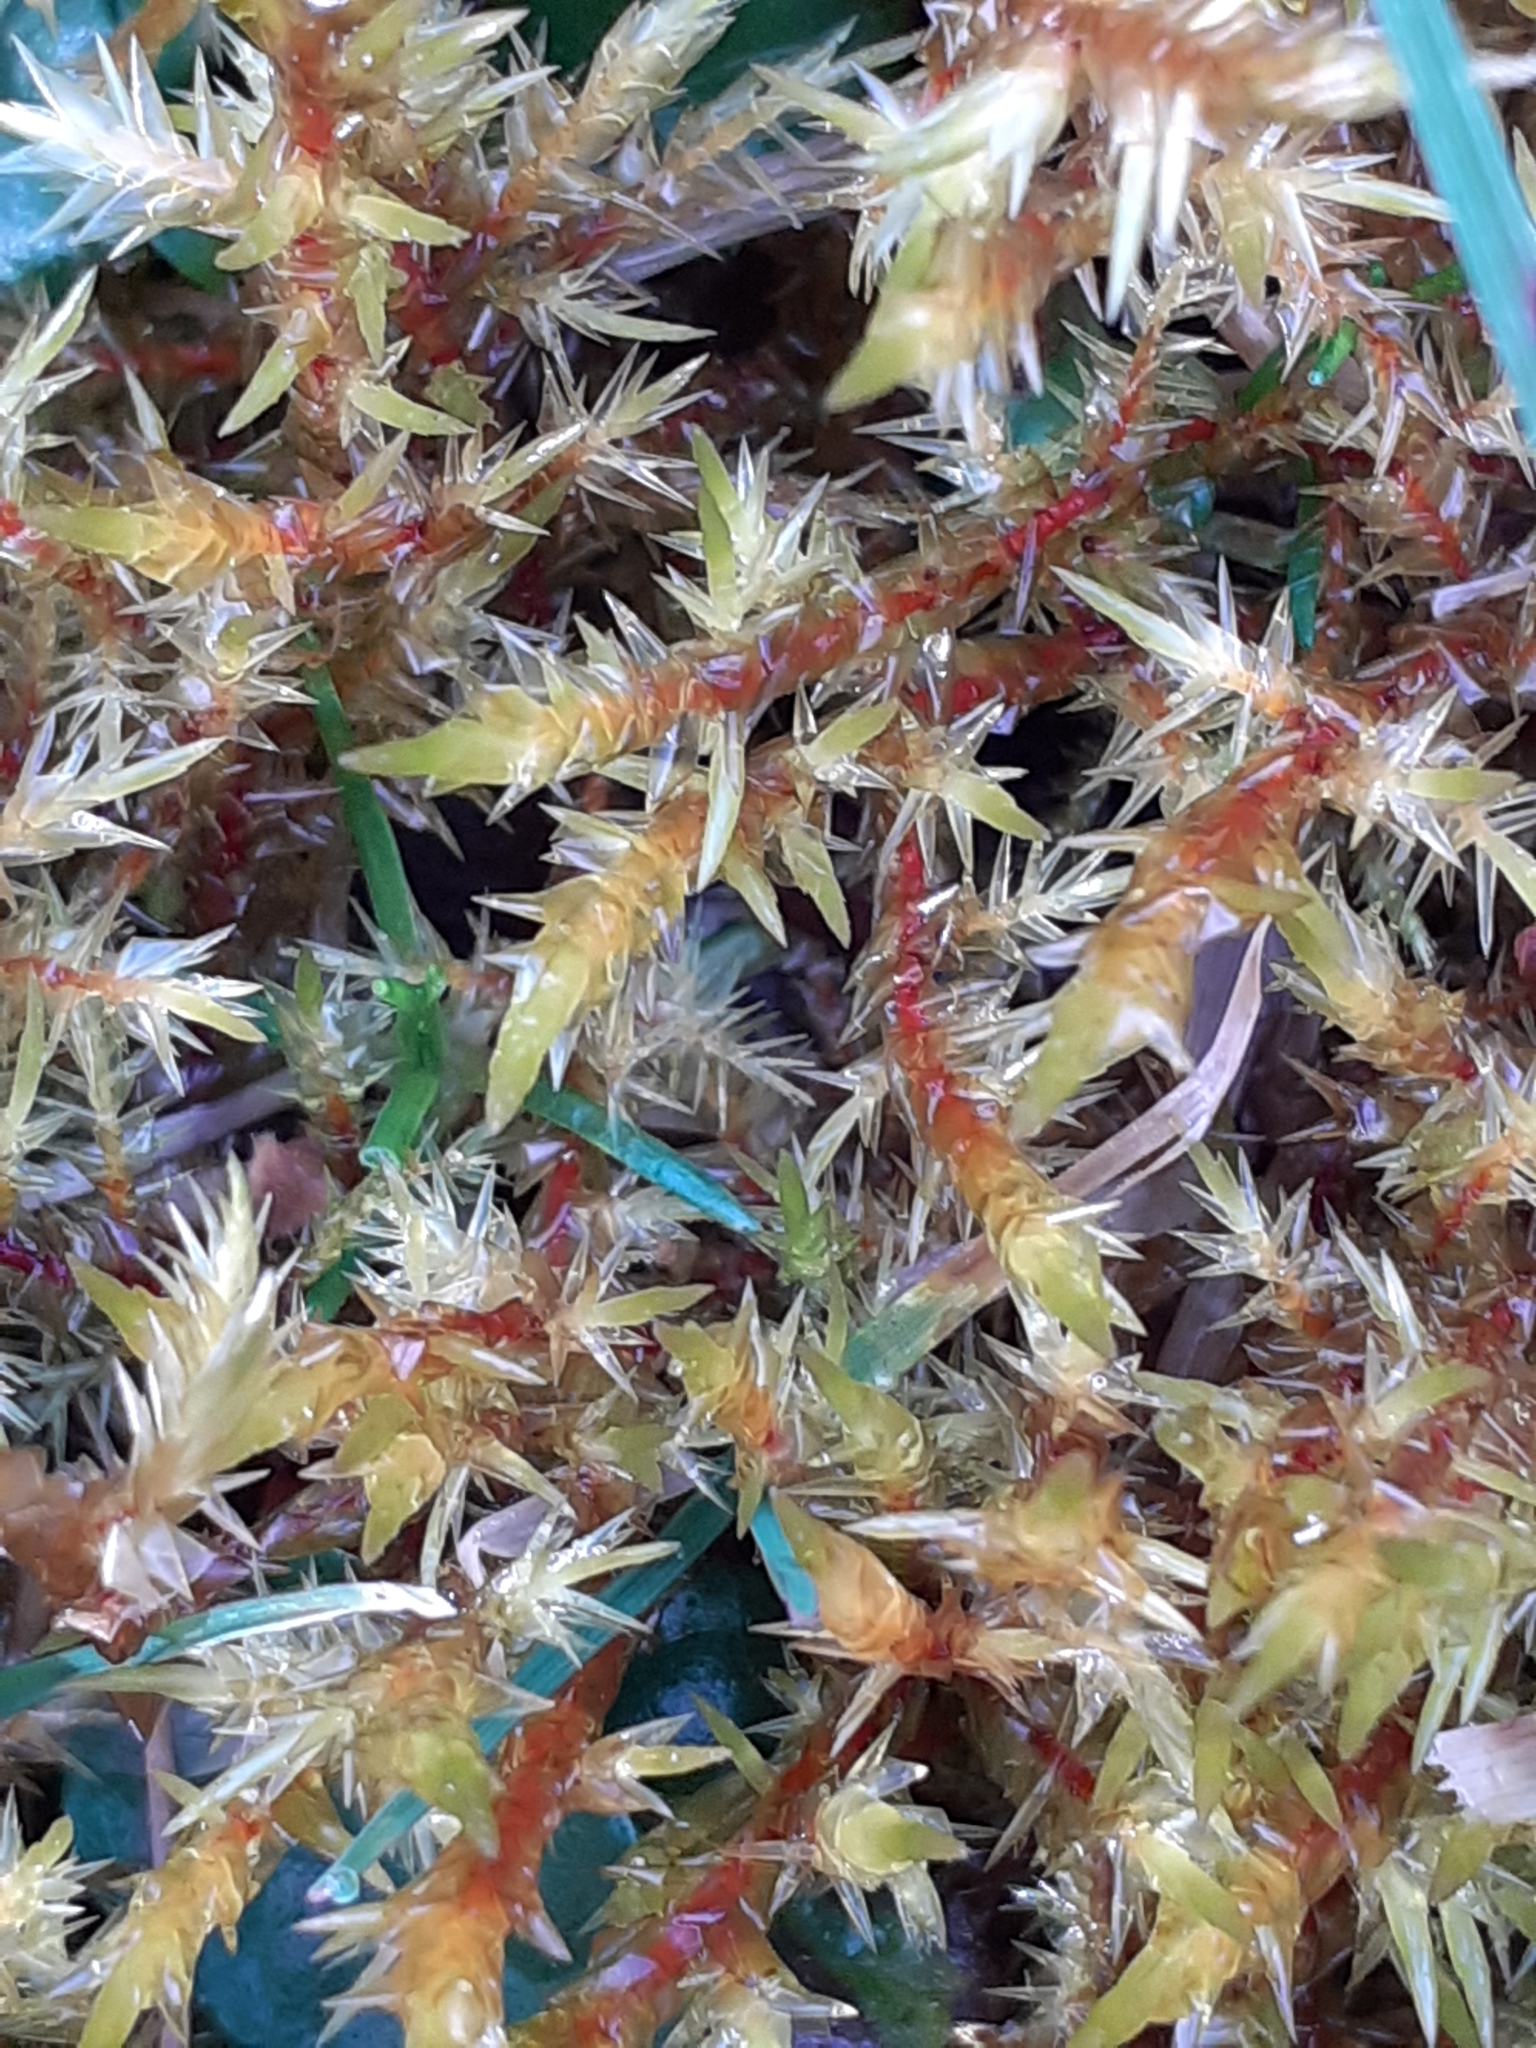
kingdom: Plantae
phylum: Bryophyta
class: Bryopsida
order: Hypnales
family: Pylaisiaceae
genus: Calliergonella
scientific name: Calliergonella cuspidata
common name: Common large wetland moss
